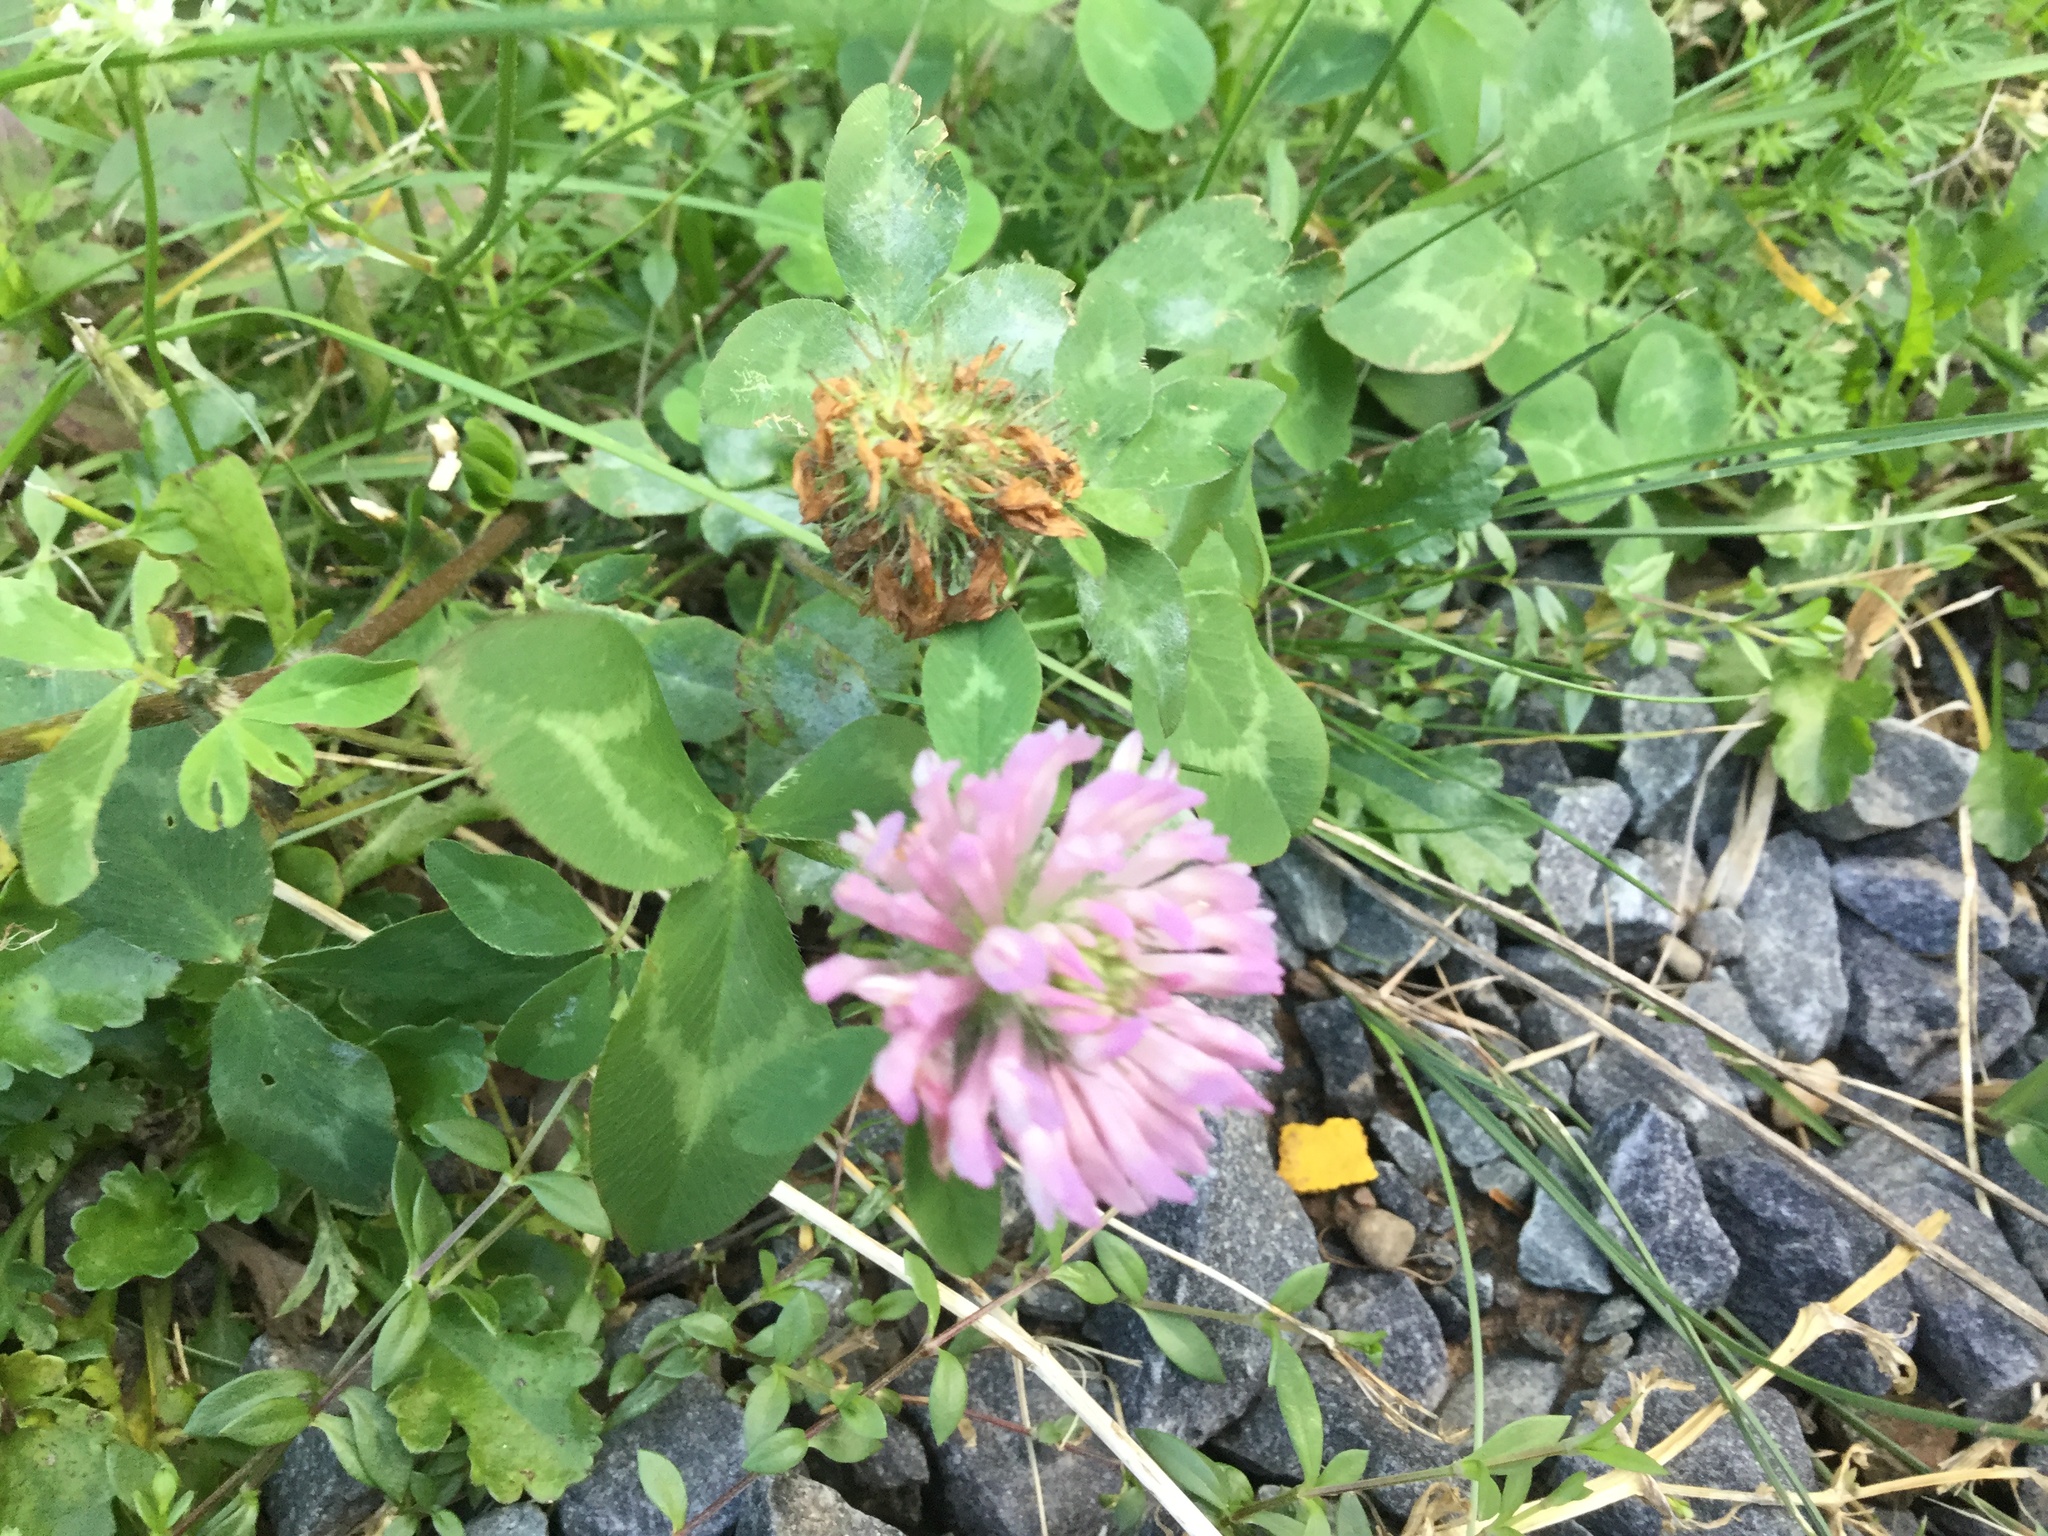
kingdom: Plantae
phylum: Tracheophyta
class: Magnoliopsida
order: Fabales
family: Fabaceae
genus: Trifolium
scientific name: Trifolium pratense
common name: Red clover
